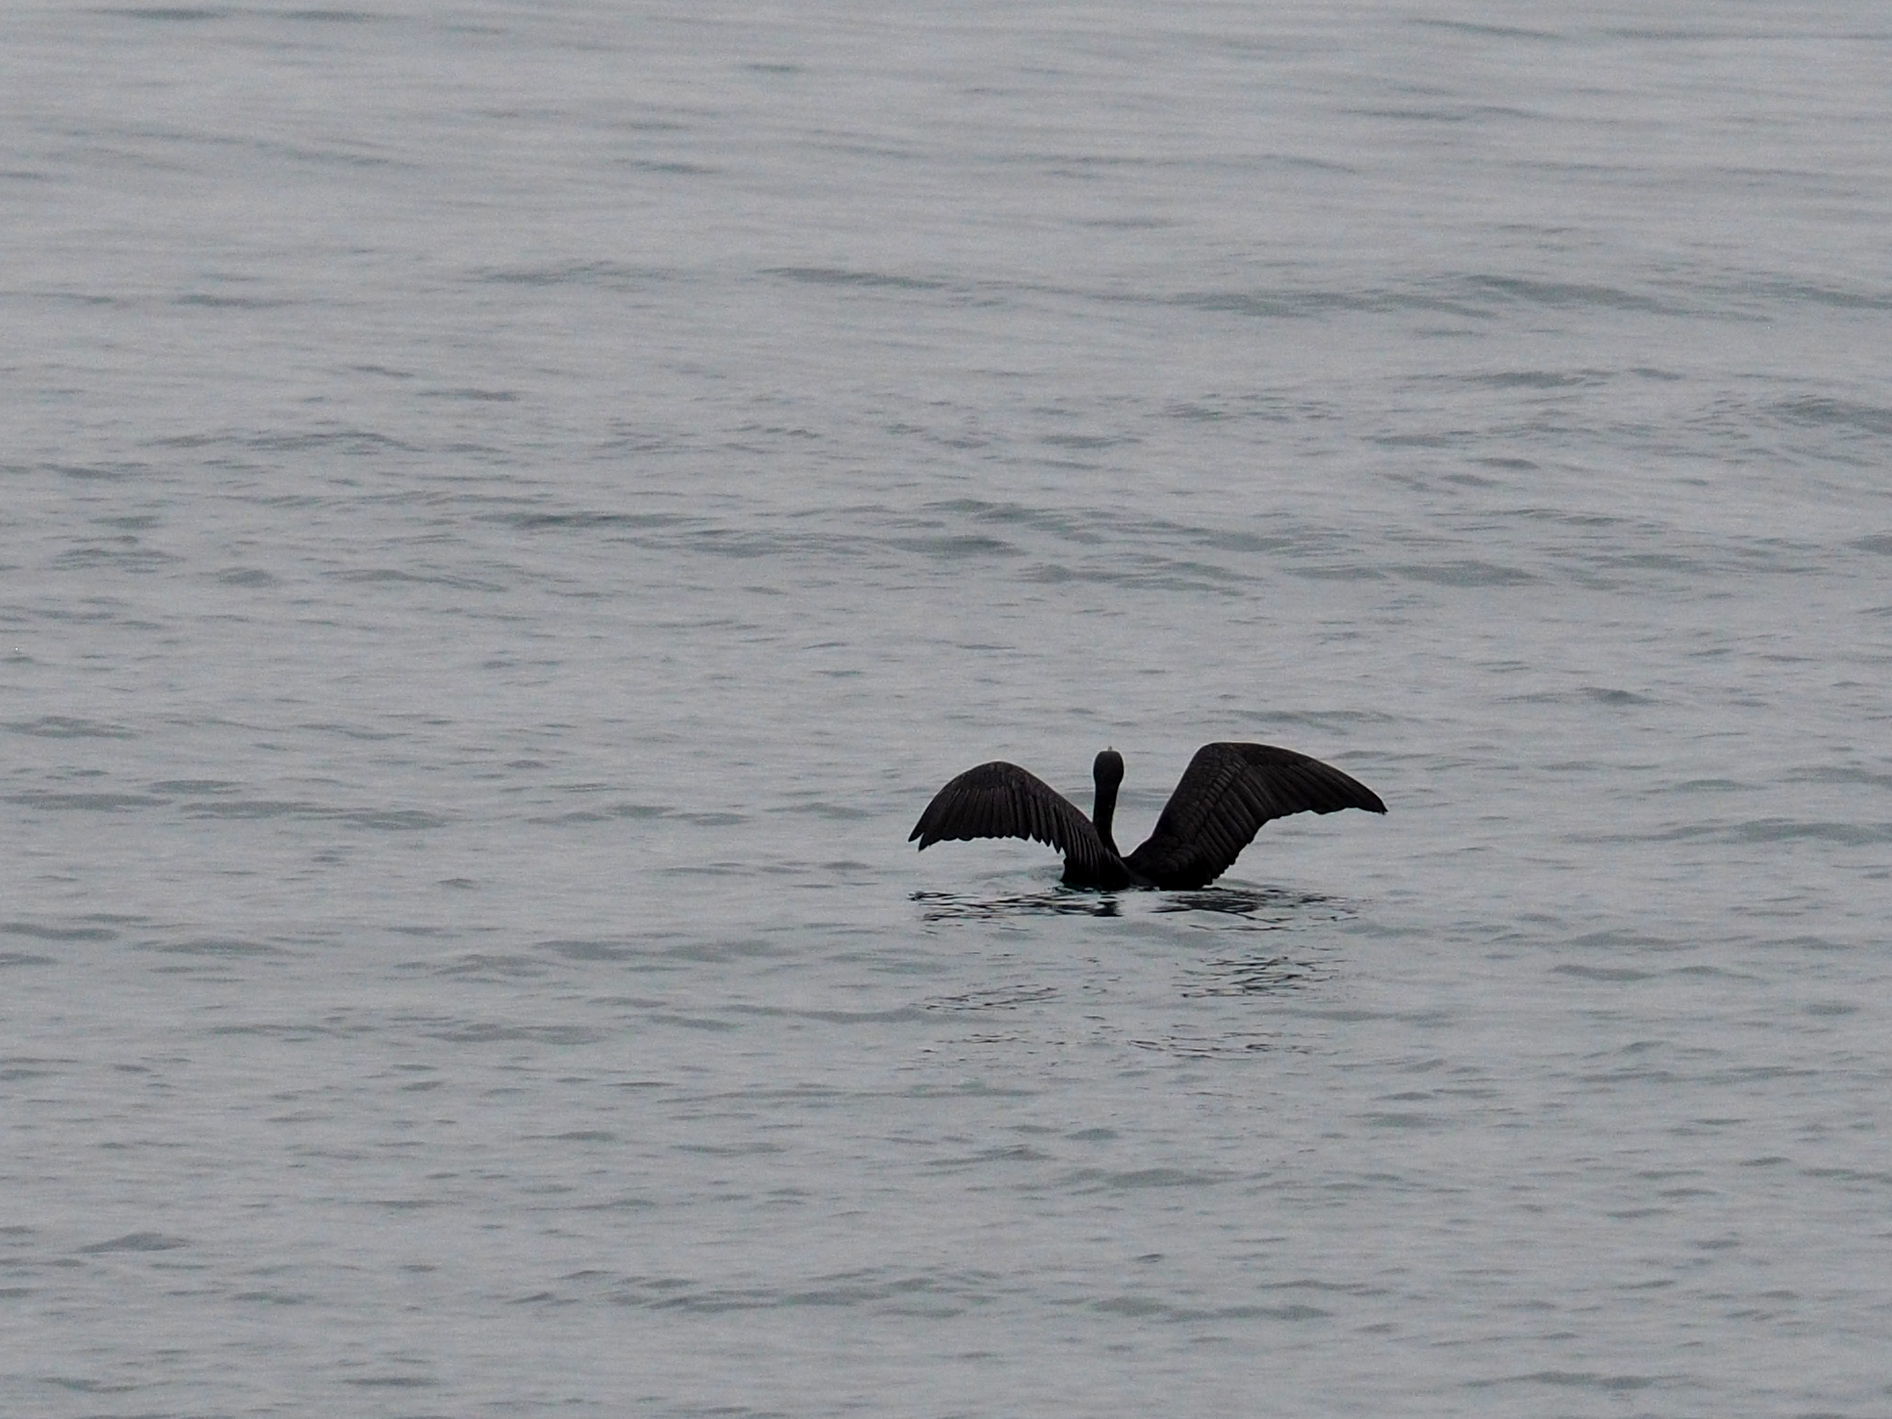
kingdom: Animalia
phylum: Chordata
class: Aves
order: Suliformes
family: Phalacrocoracidae
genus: Phalacrocorax
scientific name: Phalacrocorax carbo
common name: Great cormorant
